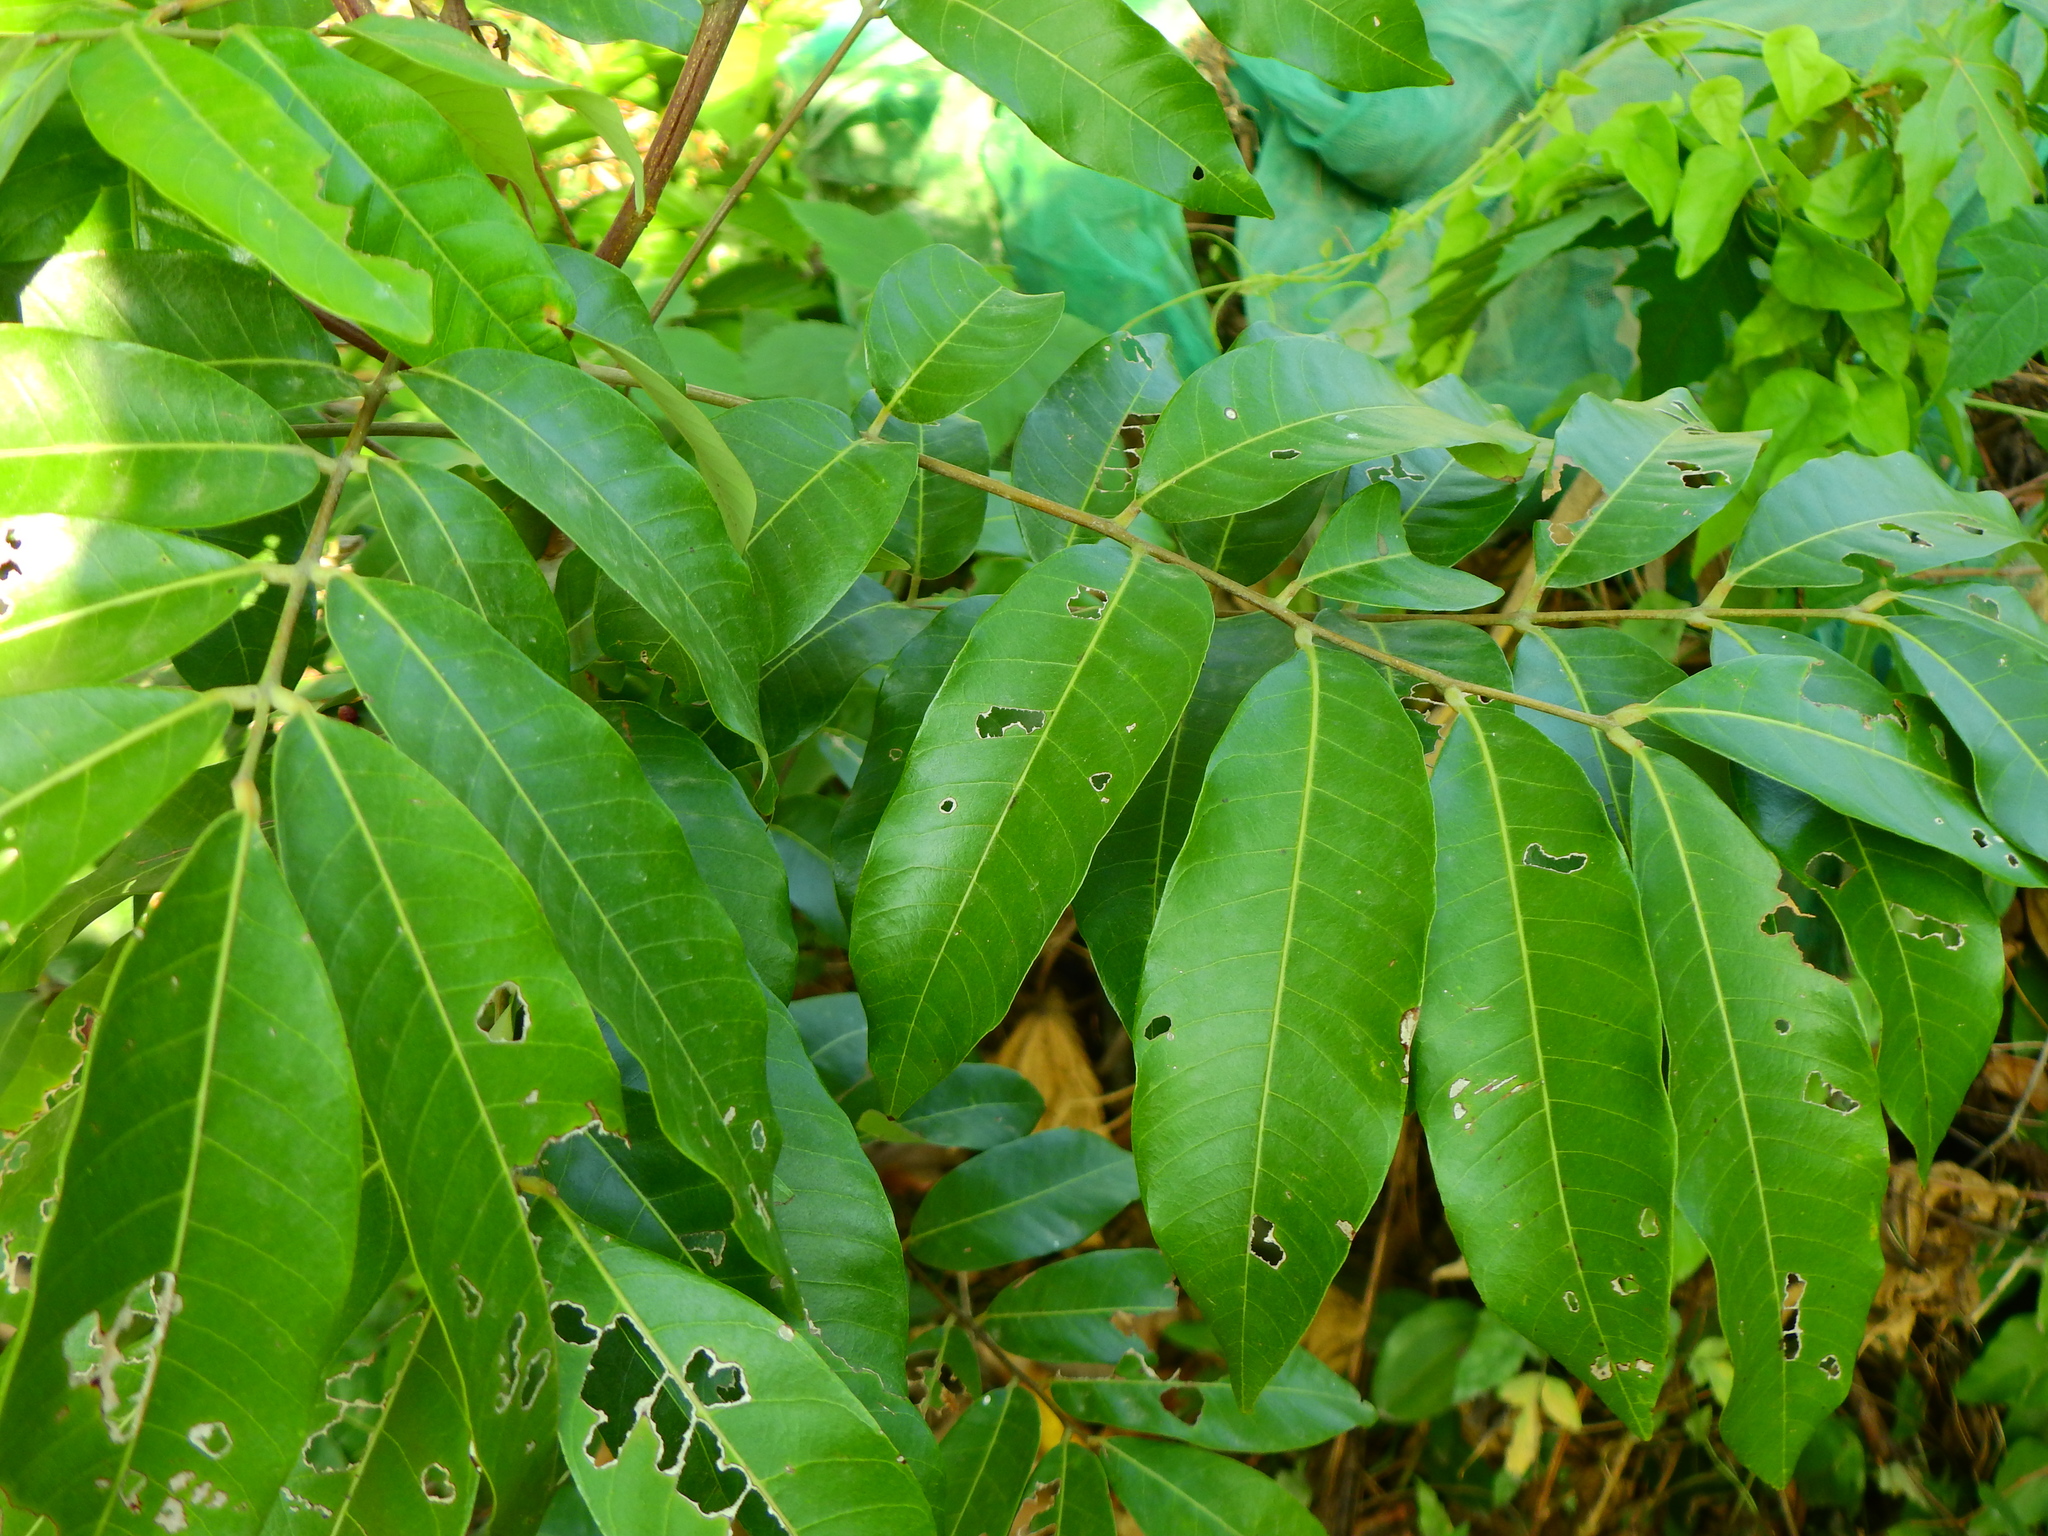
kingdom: Plantae
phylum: Tracheophyta
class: Magnoliopsida
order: Sapindales
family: Sapindaceae
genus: Dimocarpus
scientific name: Dimocarpus longan
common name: Longan
